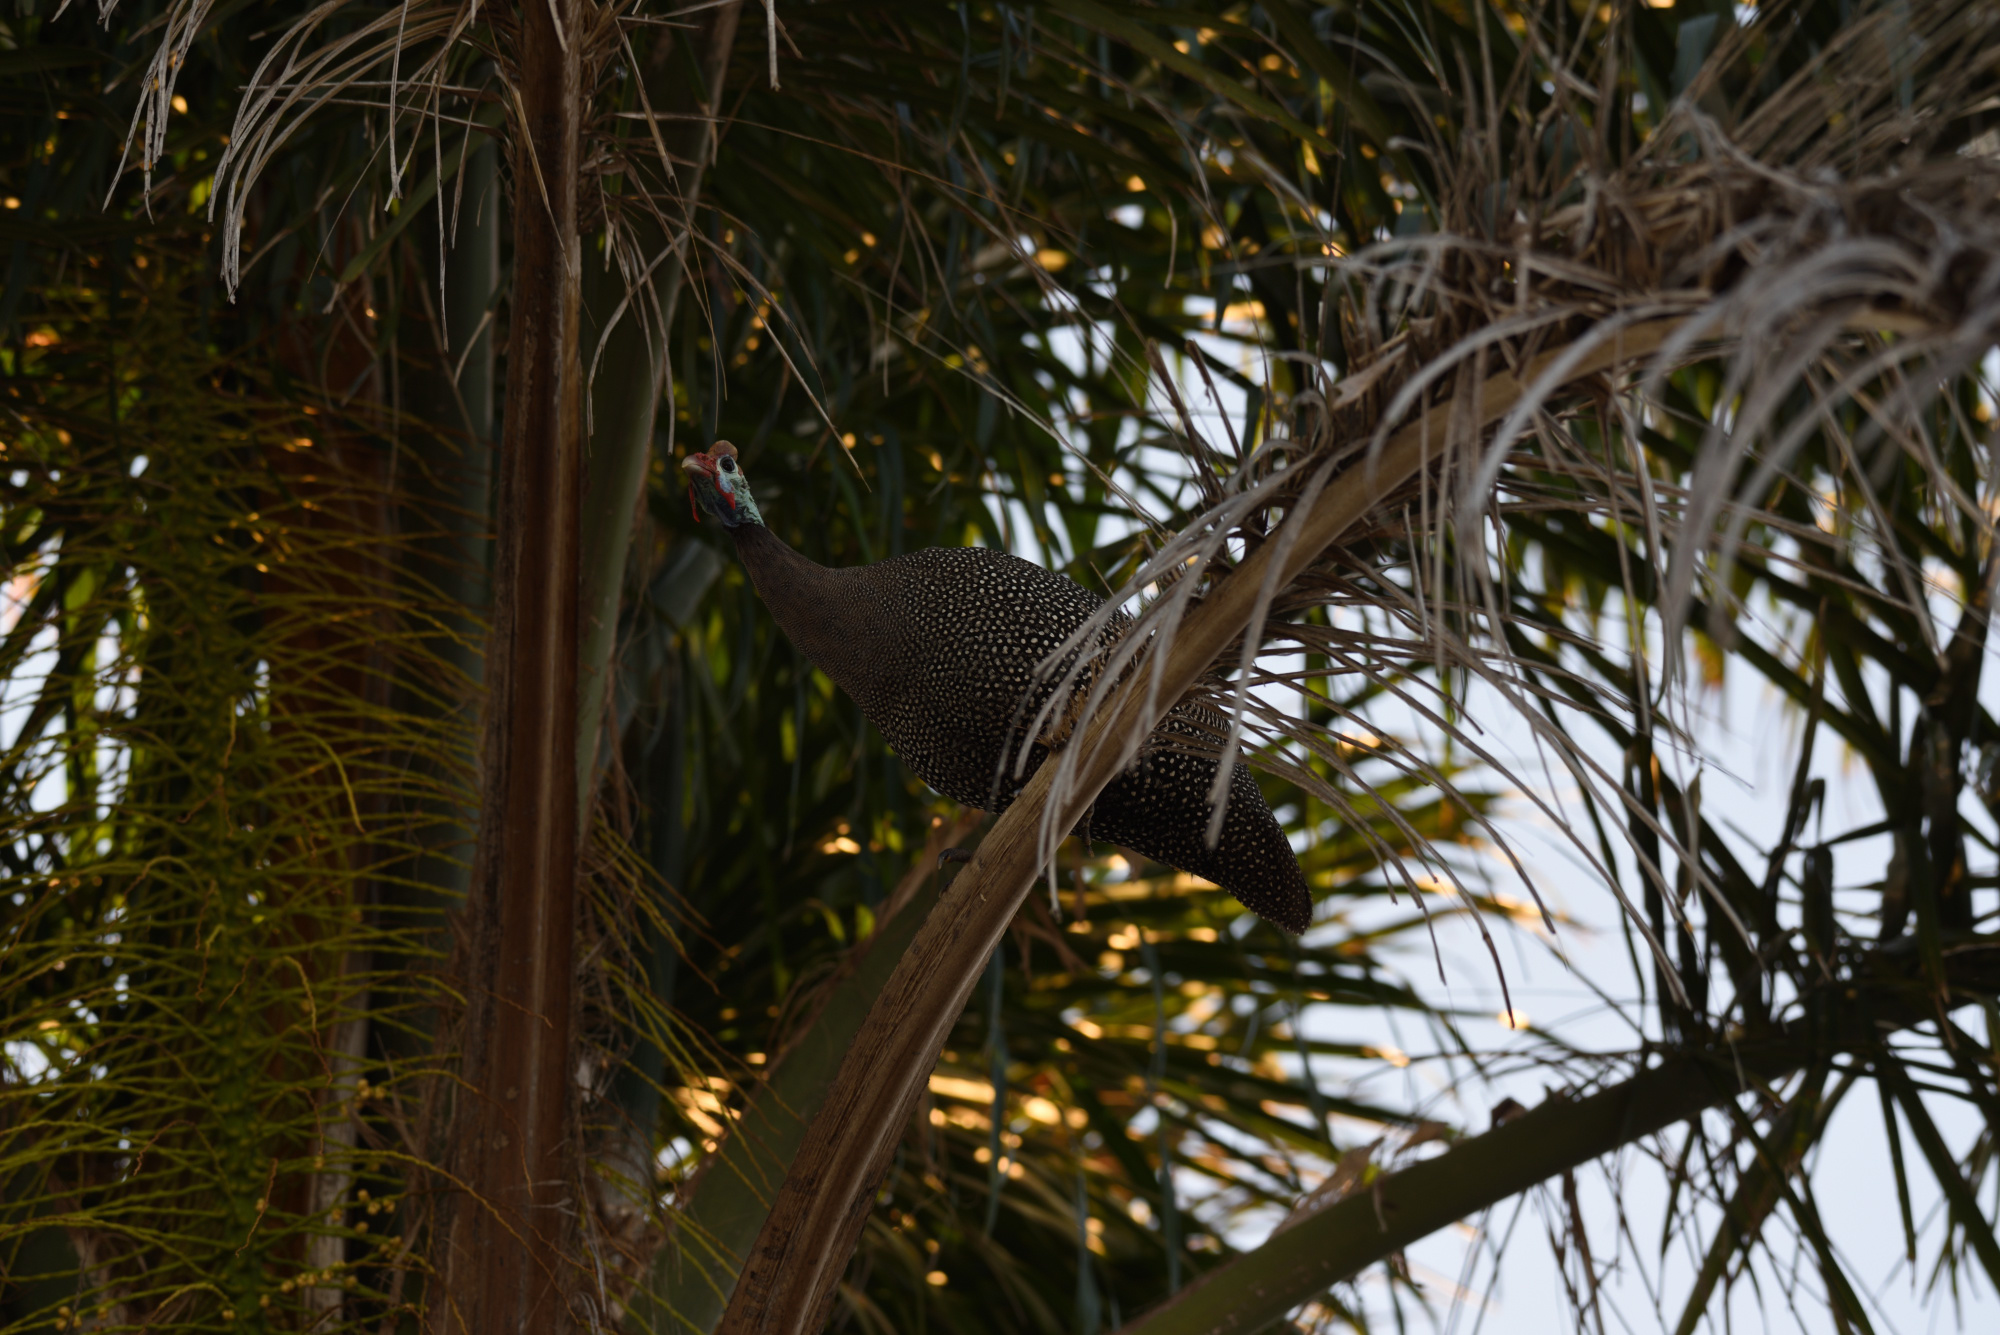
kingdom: Animalia
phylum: Chordata
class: Aves
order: Galliformes
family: Numididae
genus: Numida
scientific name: Numida meleagris
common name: Helmeted guineafowl
